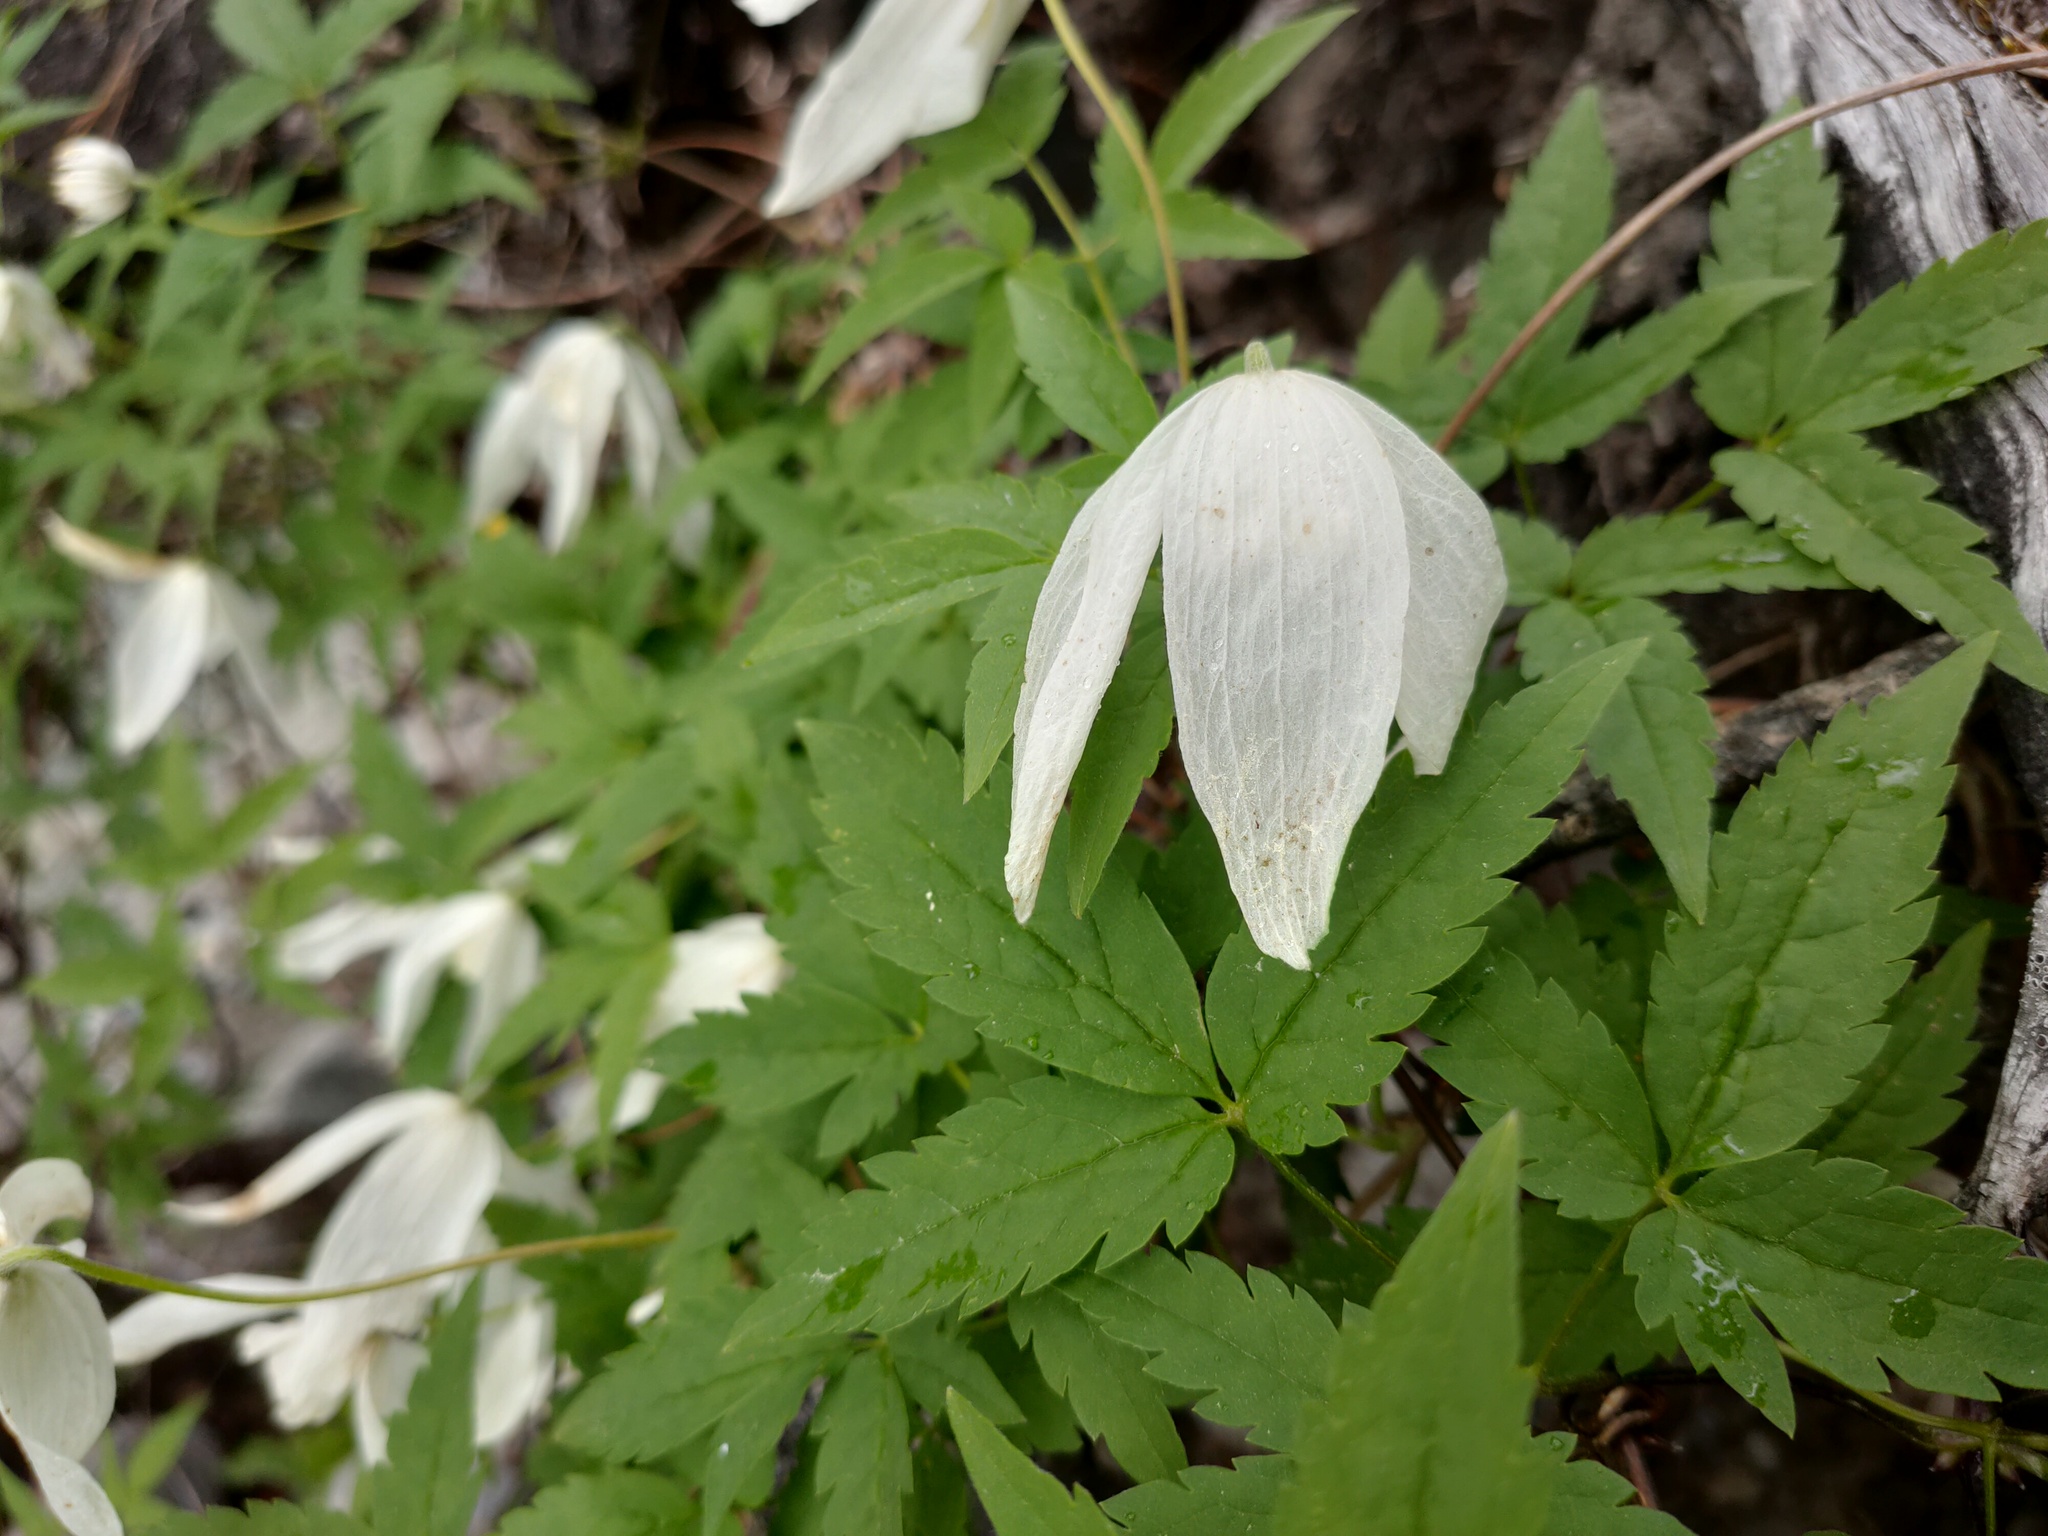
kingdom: Plantae
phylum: Tracheophyta
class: Magnoliopsida
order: Ranunculales
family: Ranunculaceae
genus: Clematis
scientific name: Clematis sibirica
